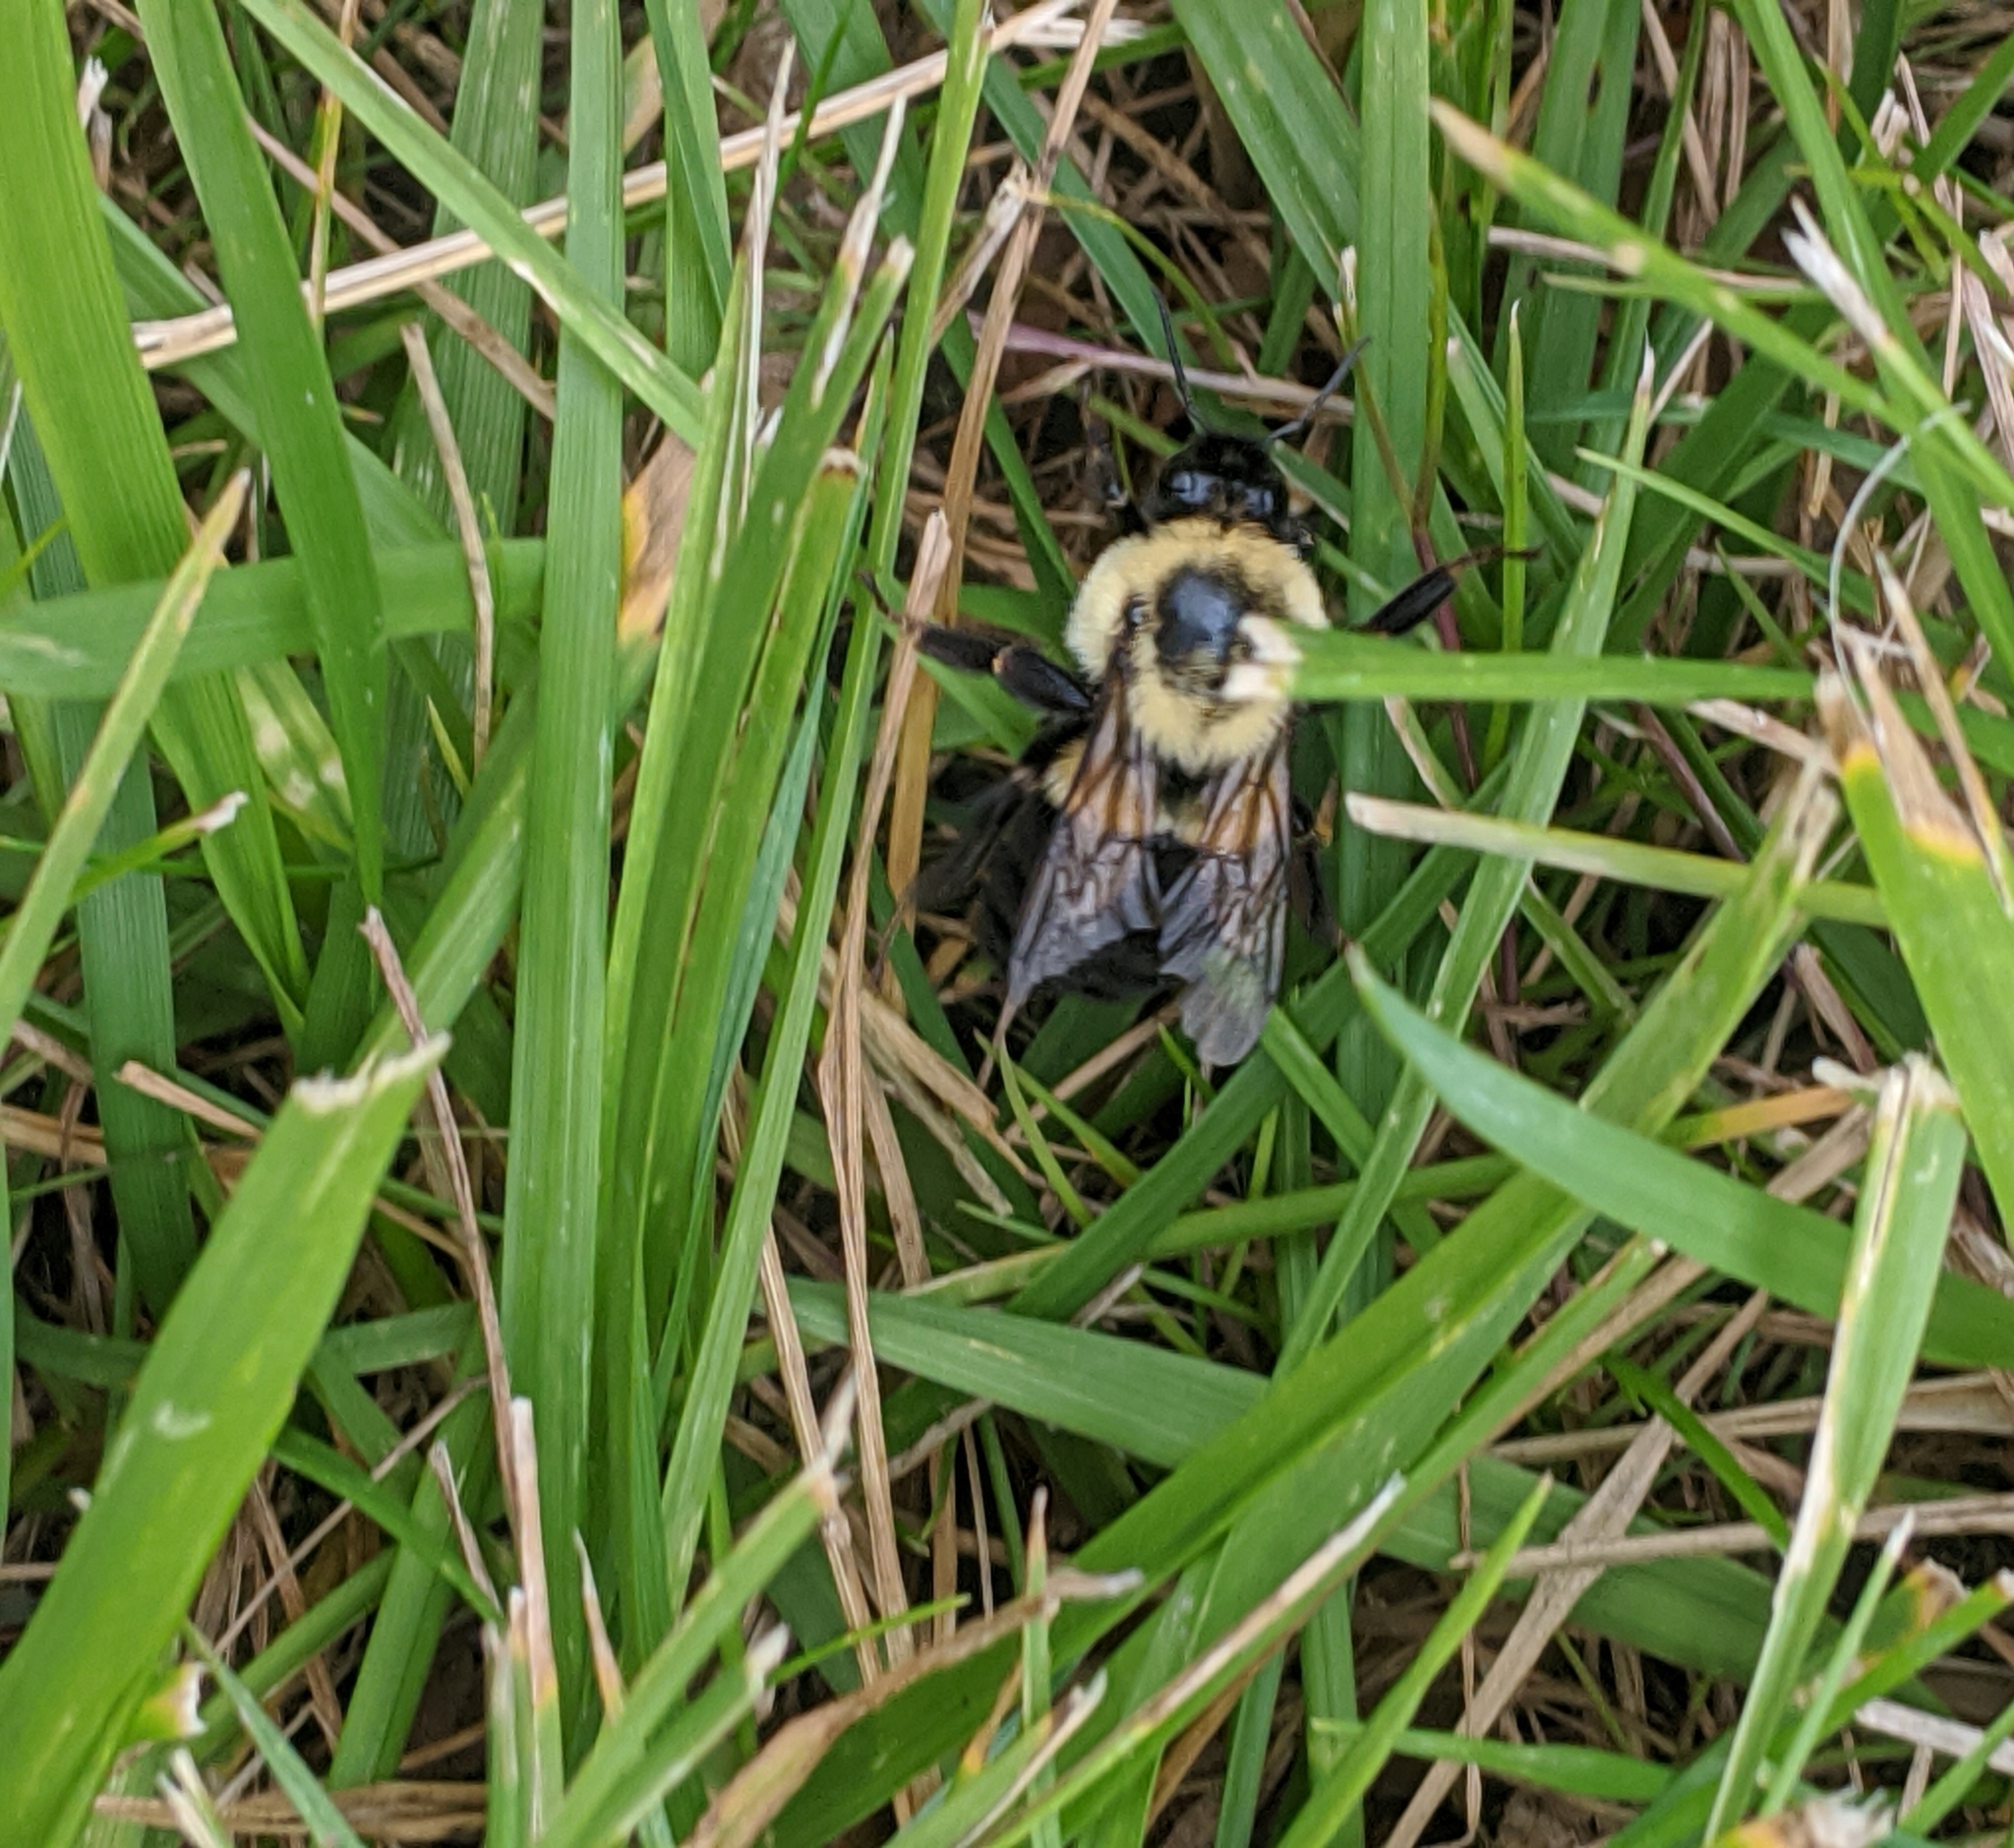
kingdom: Animalia
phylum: Arthropoda
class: Insecta
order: Hymenoptera
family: Apidae
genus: Bombus
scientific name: Bombus impatiens
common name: Common eastern bumble bee
